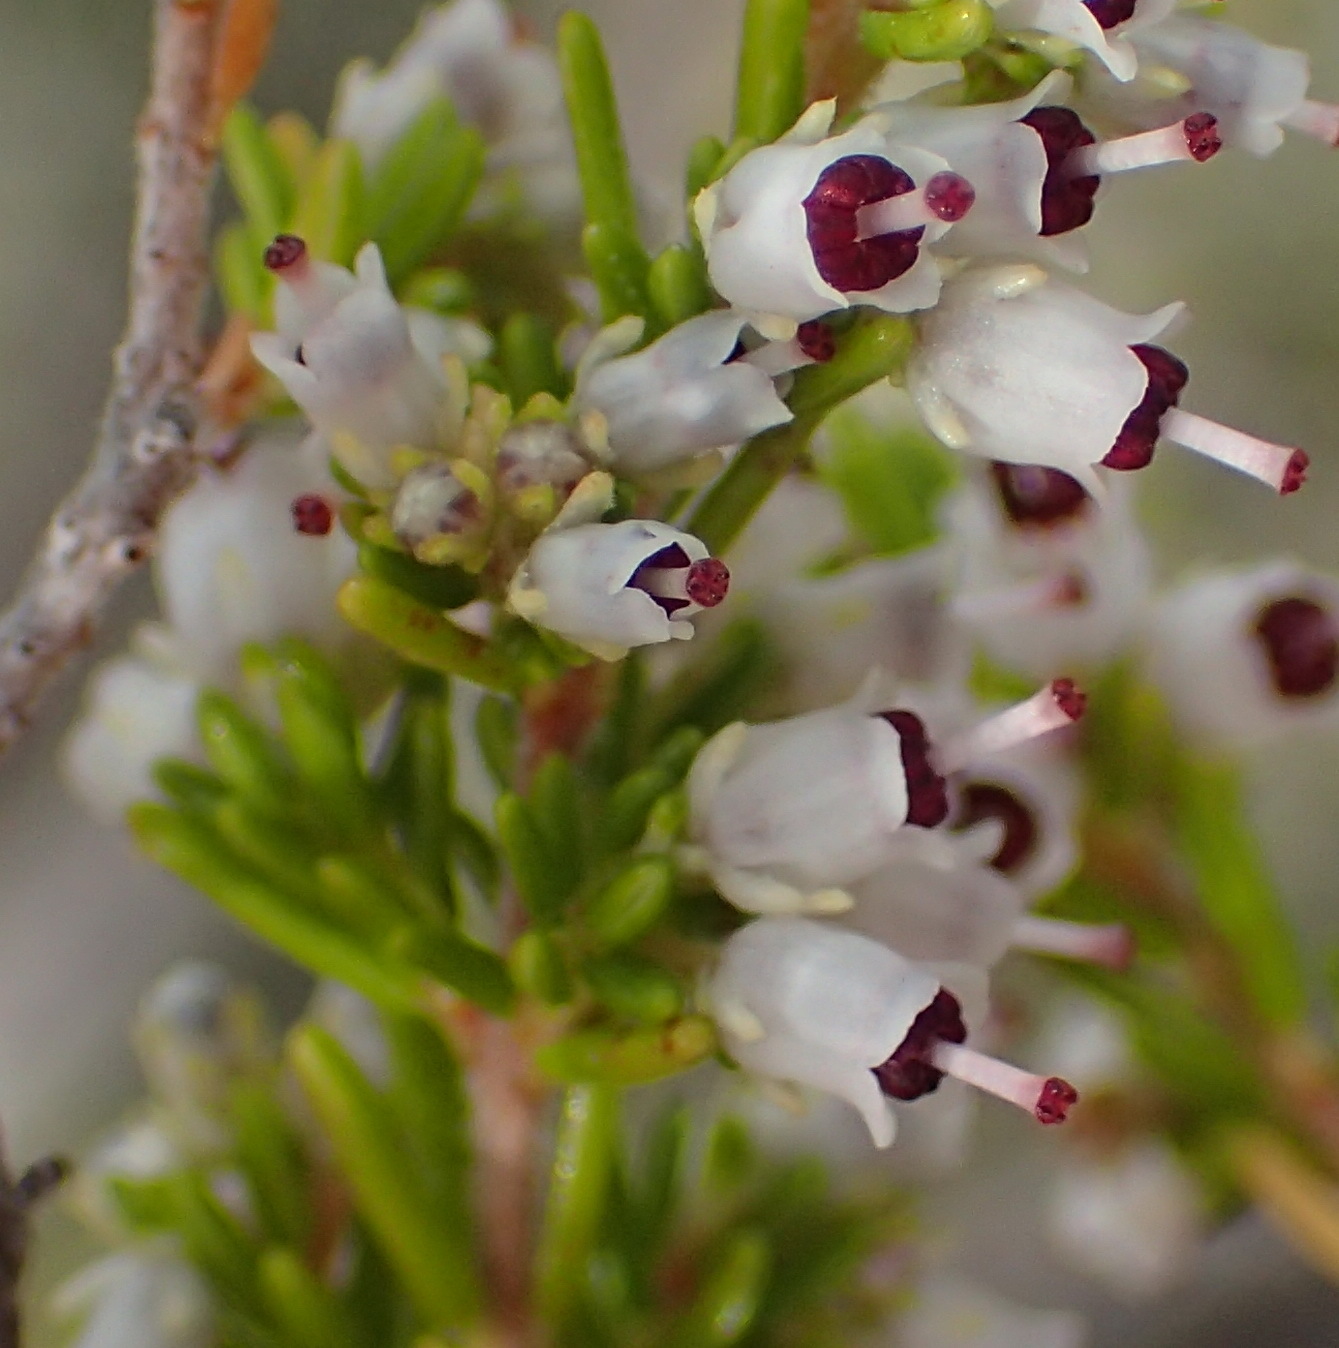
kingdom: Plantae
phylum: Tracheophyta
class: Magnoliopsida
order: Ericales
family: Ericaceae
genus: Erica
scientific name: Erica trivialis
